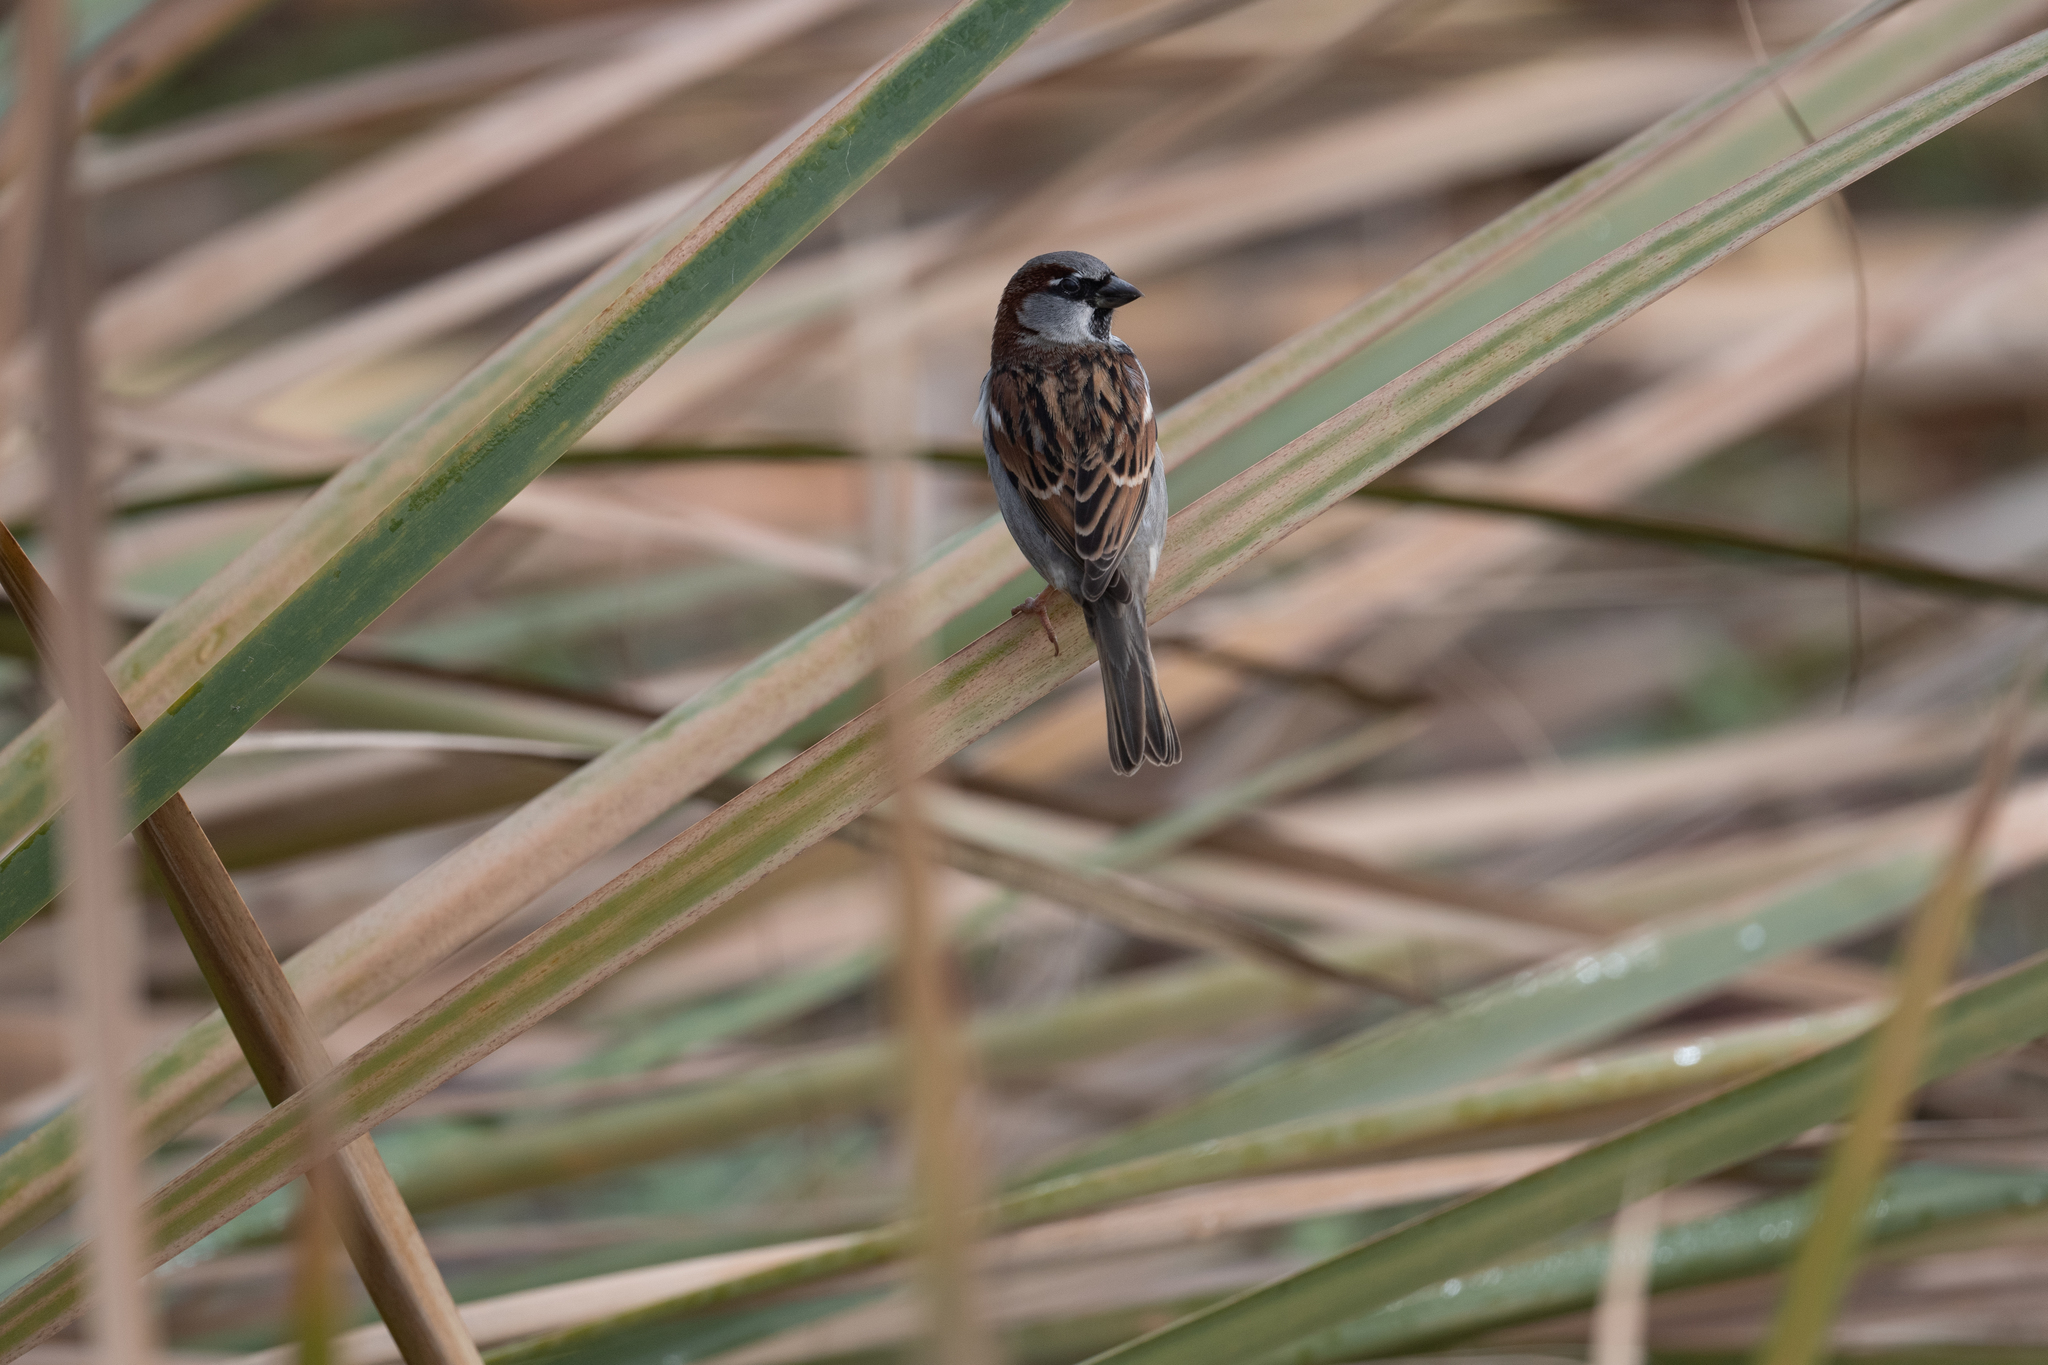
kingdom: Animalia
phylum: Chordata
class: Aves
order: Passeriformes
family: Passeridae
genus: Passer
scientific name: Passer domesticus
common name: House sparrow
